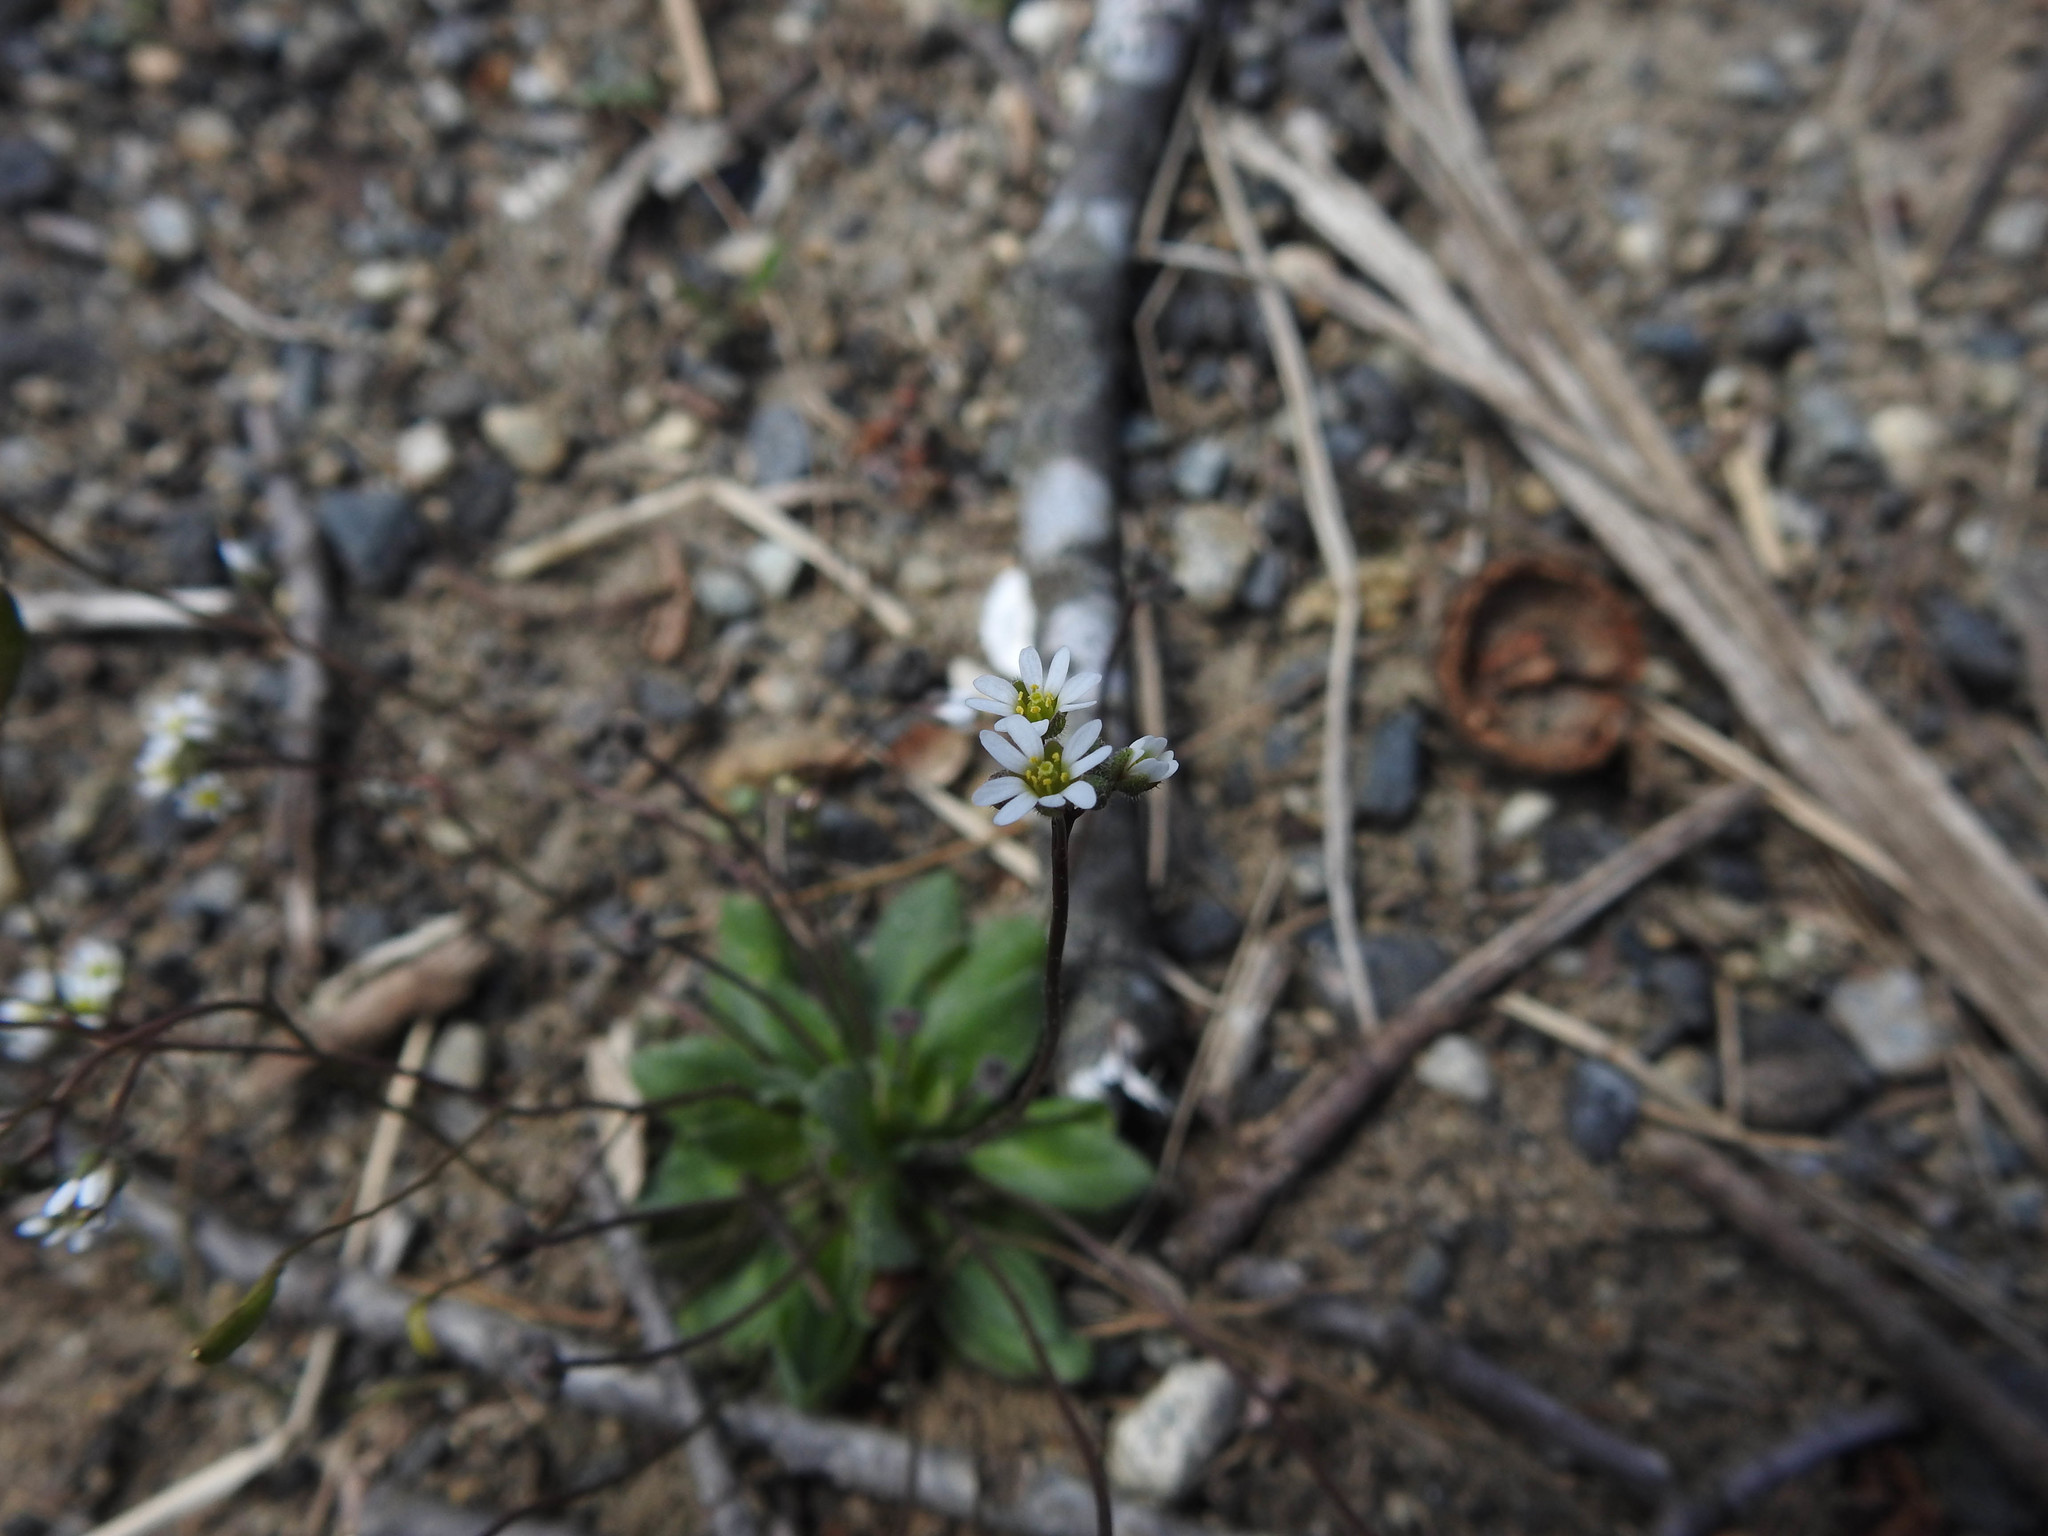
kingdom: Plantae
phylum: Tracheophyta
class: Magnoliopsida
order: Brassicales
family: Brassicaceae
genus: Draba
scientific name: Draba verna
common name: Spring draba
